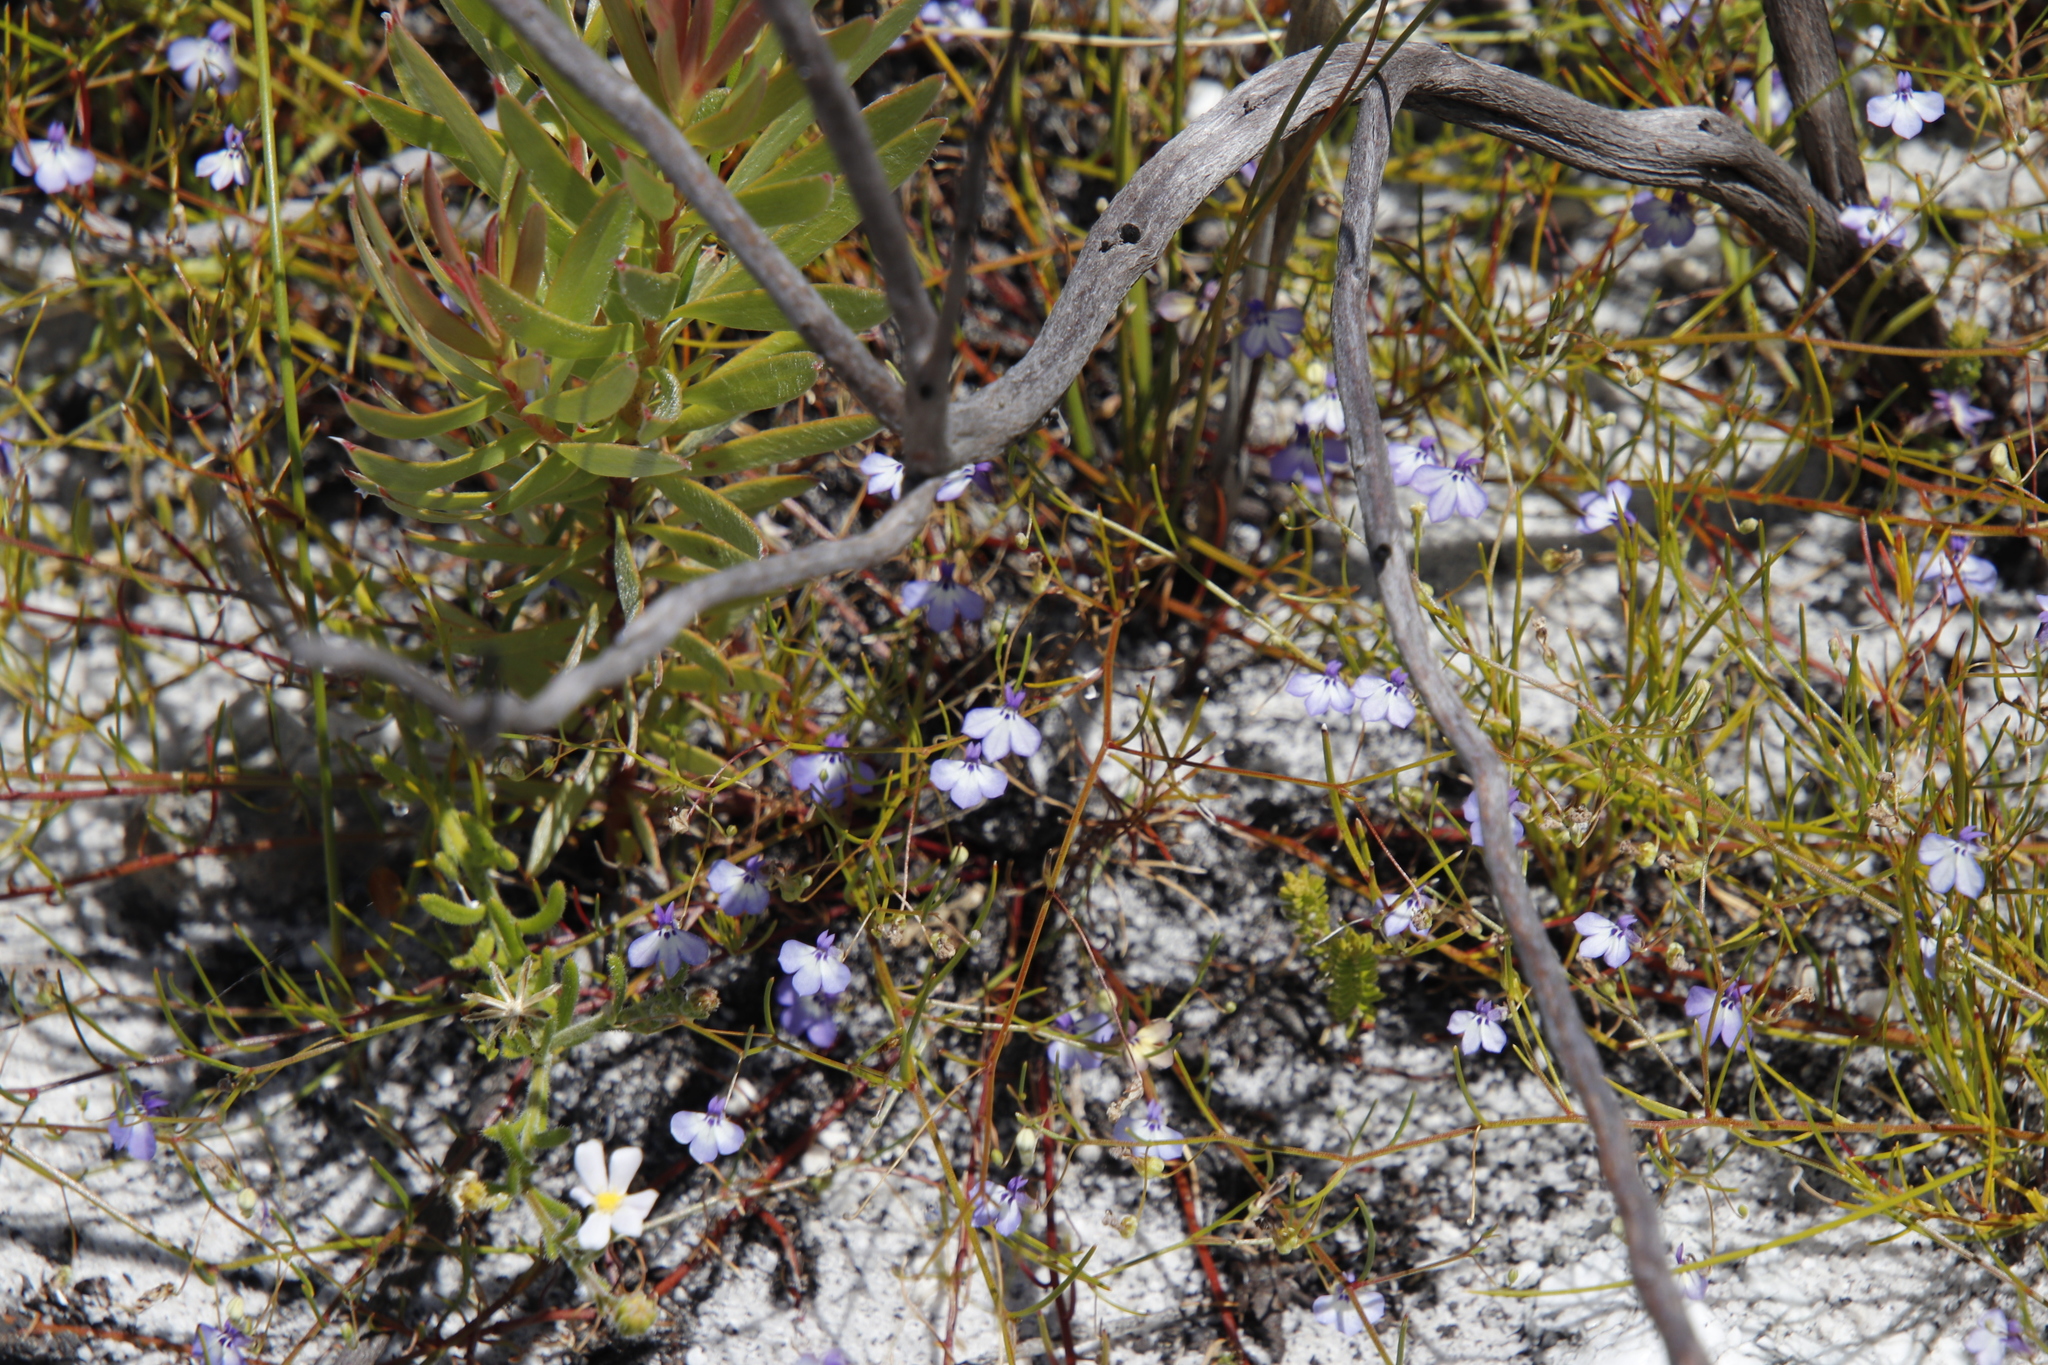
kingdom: Plantae
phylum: Tracheophyta
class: Magnoliopsida
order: Asterales
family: Campanulaceae
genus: Lobelia
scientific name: Lobelia setacea
